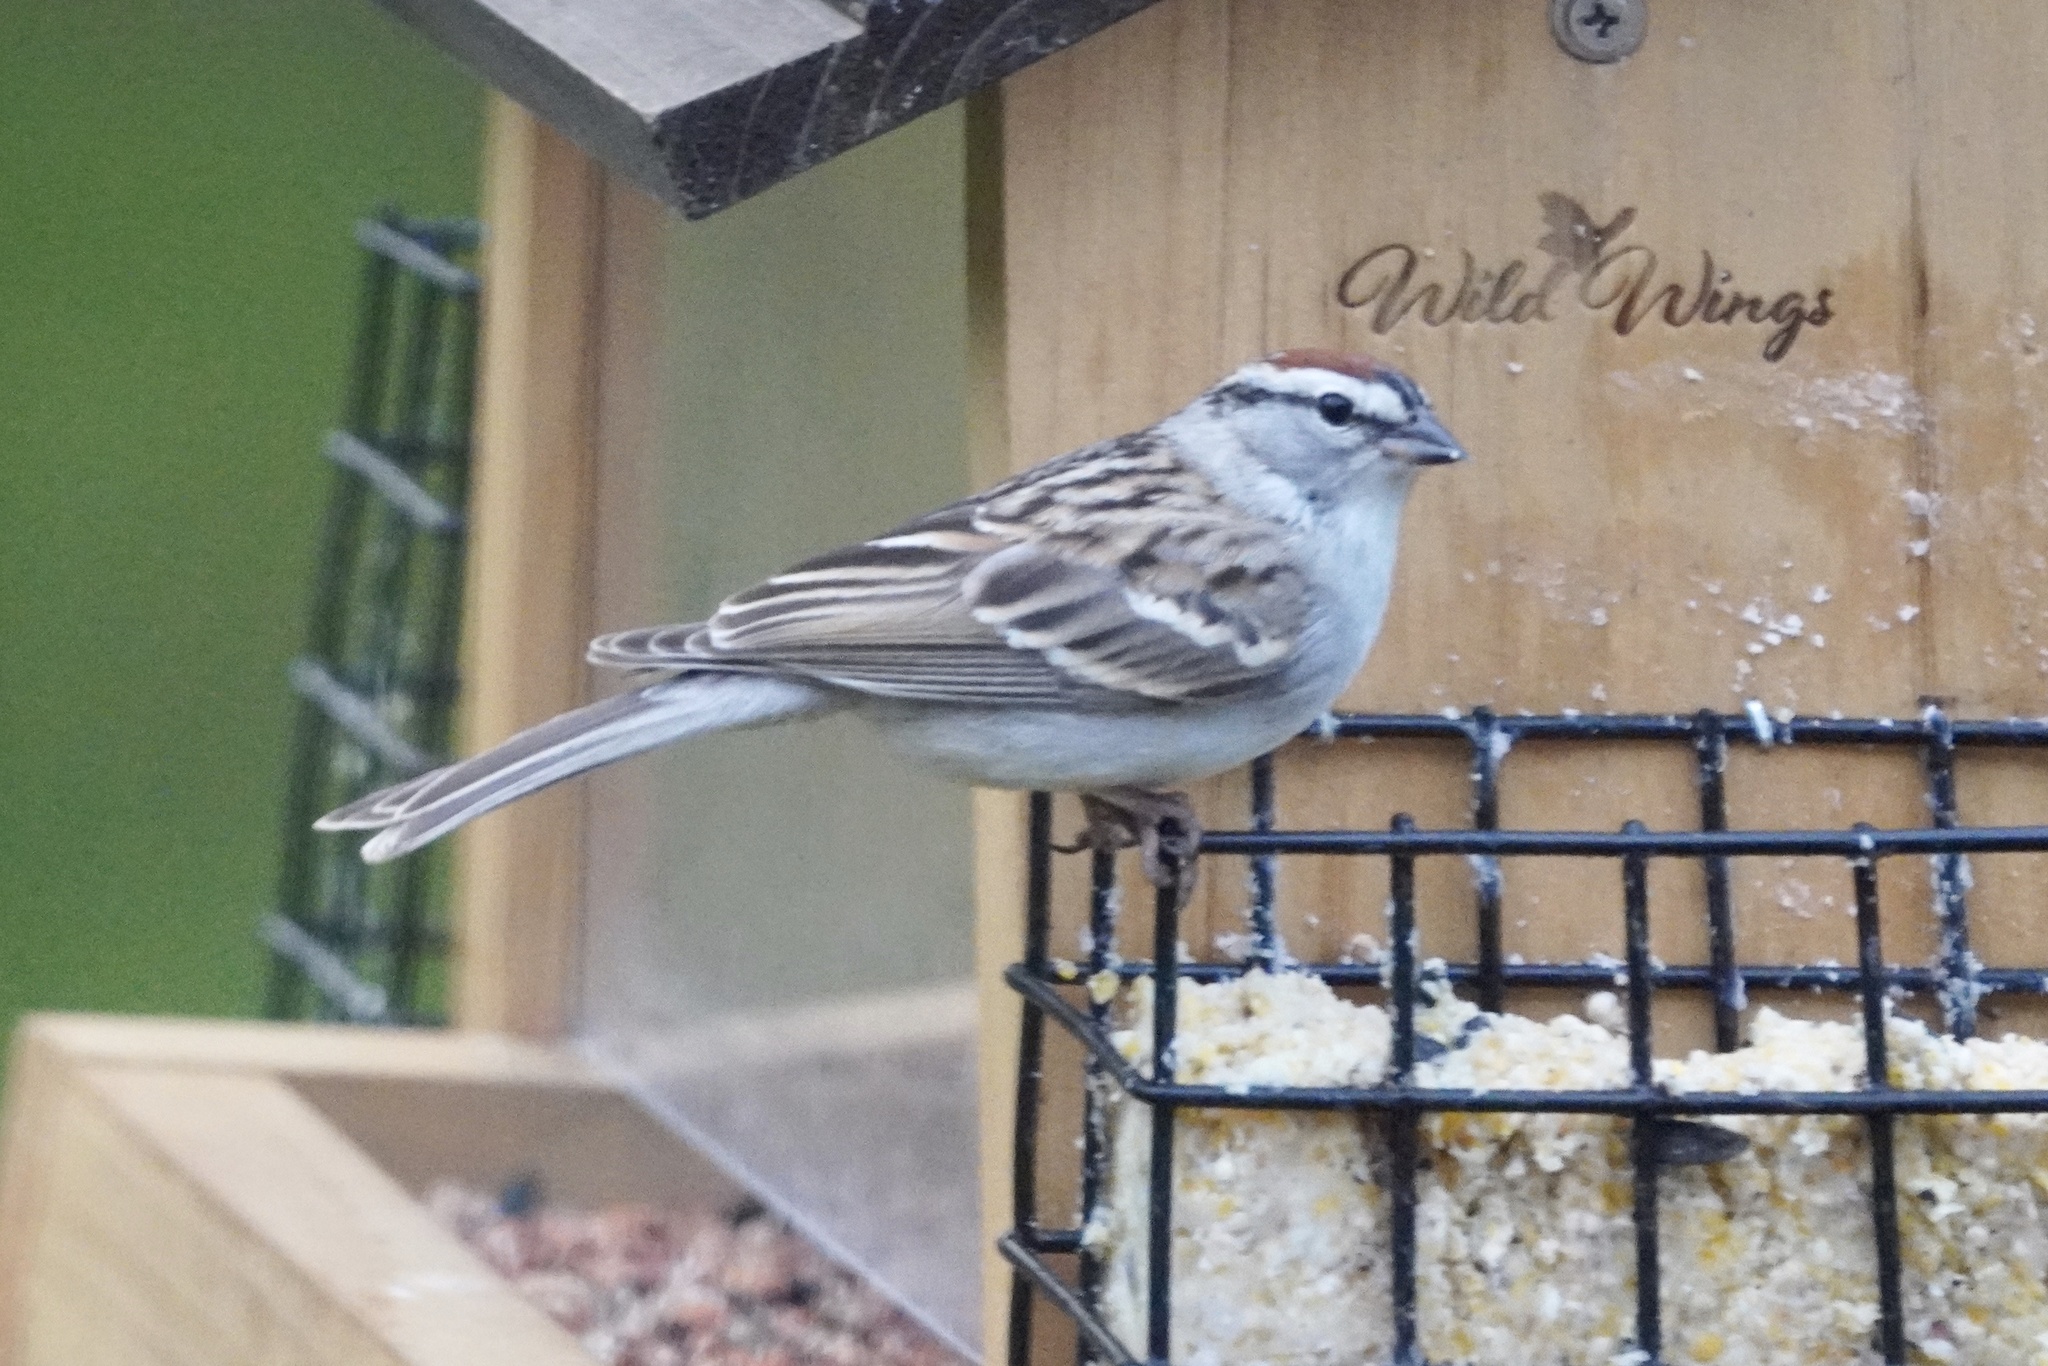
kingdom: Animalia
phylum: Chordata
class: Aves
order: Passeriformes
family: Passerellidae
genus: Spizella
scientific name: Spizella passerina
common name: Chipping sparrow
